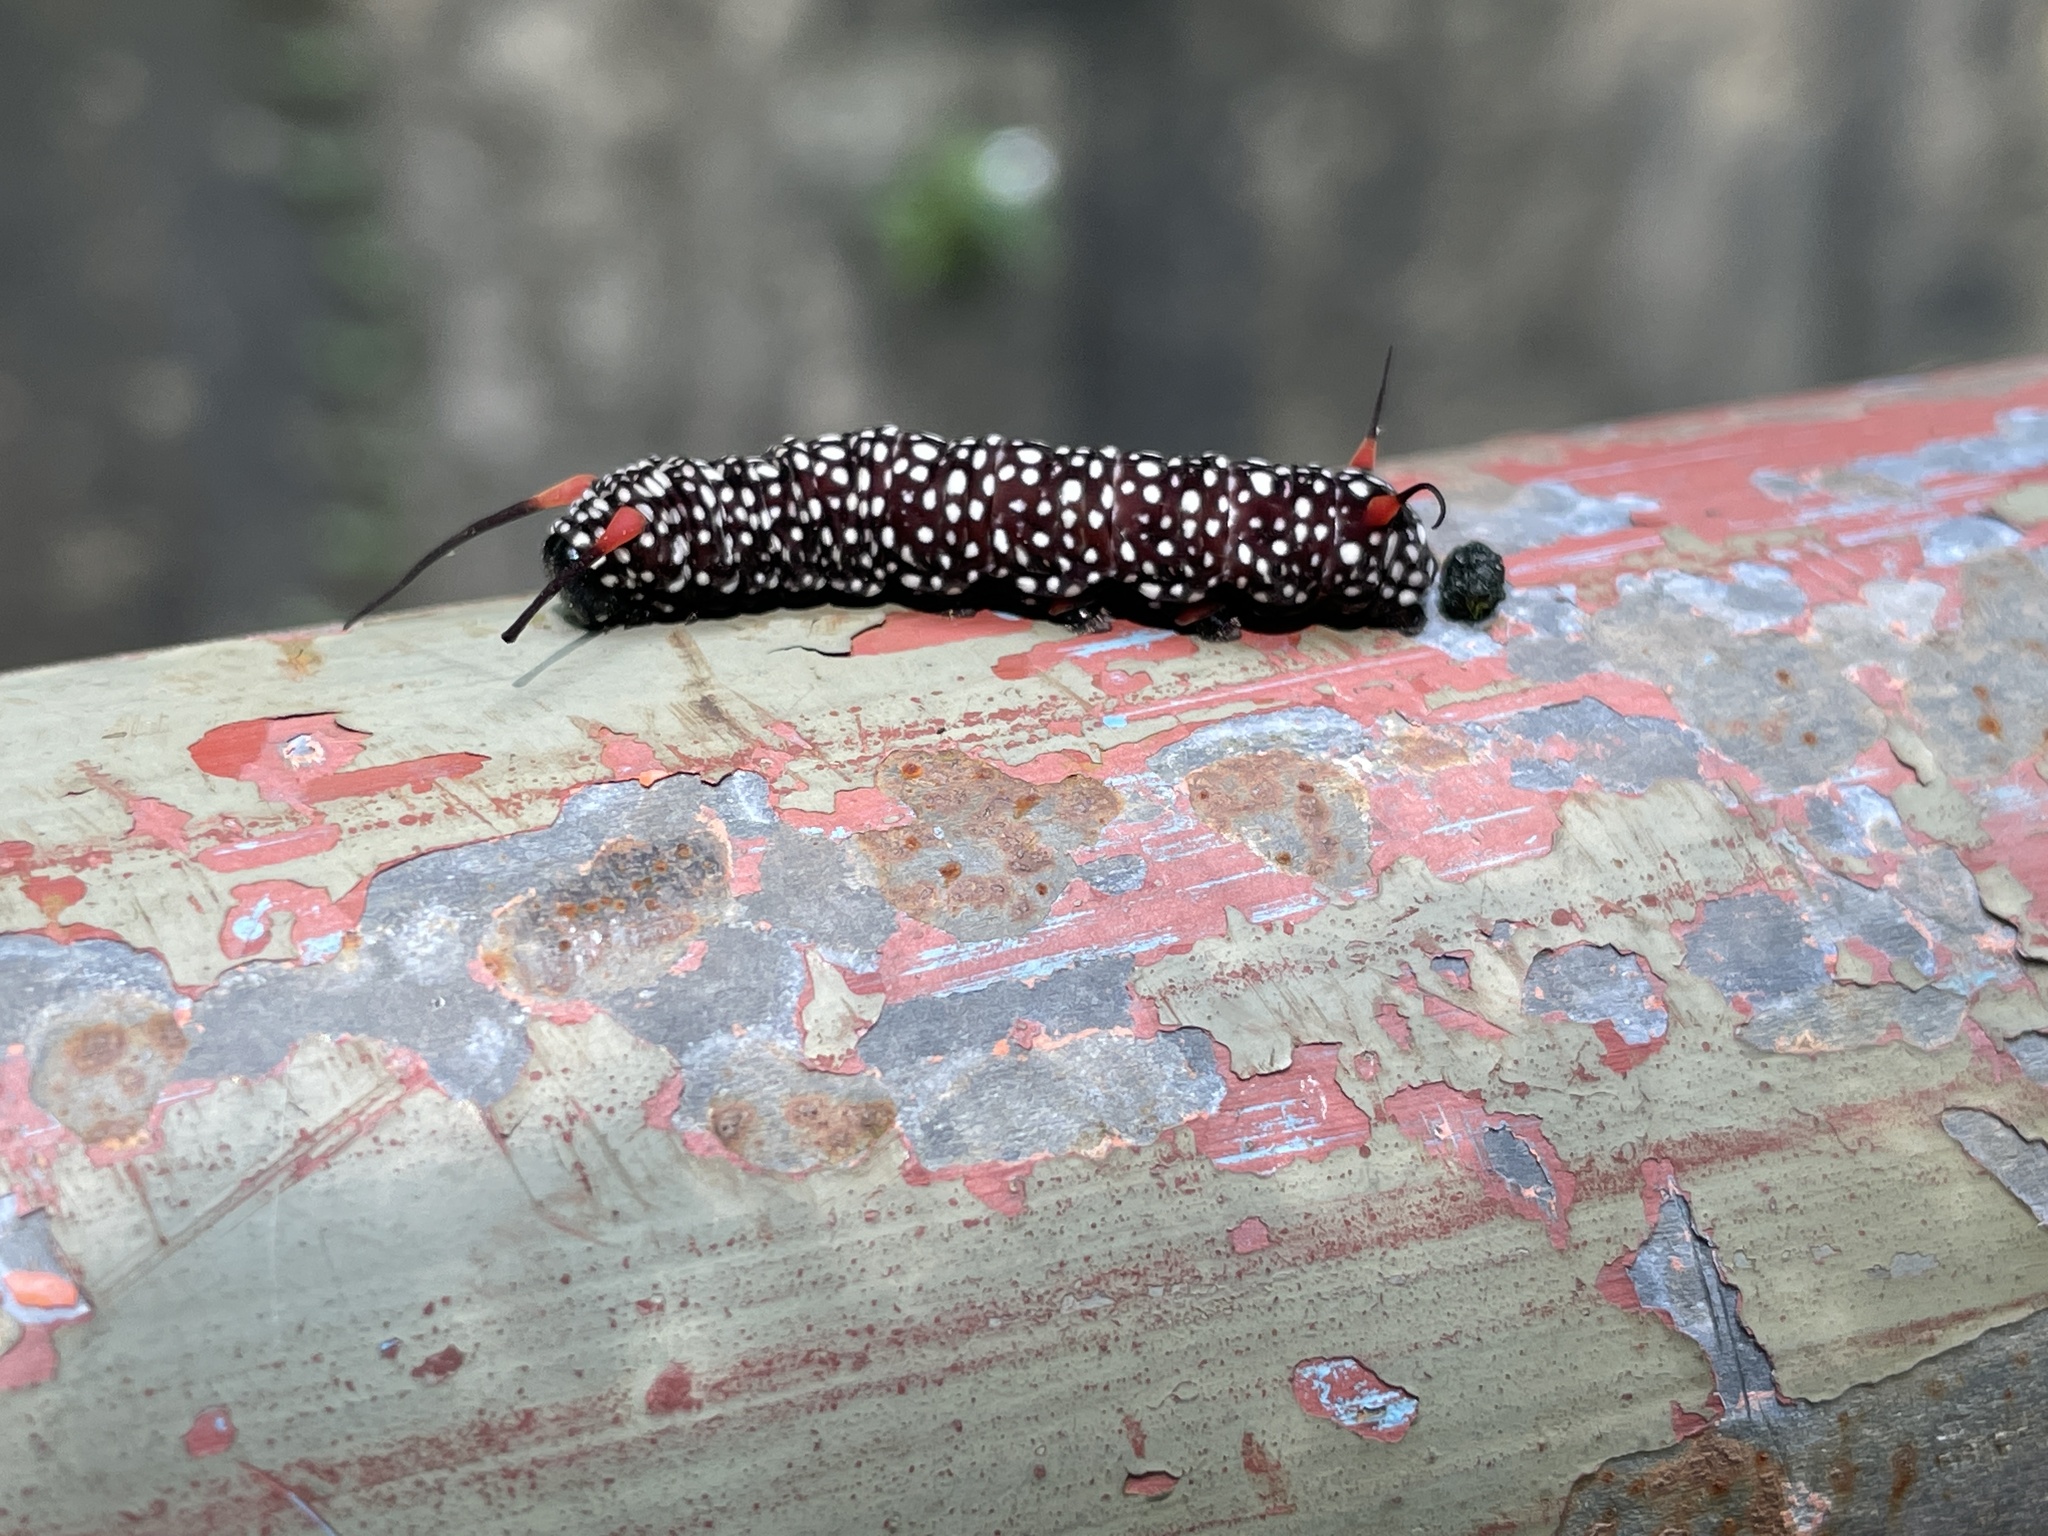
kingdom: Animalia
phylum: Arthropoda
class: Insecta
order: Lepidoptera
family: Nymphalidae
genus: Ideopsis
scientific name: Ideopsis similis
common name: Ceylon blue glassy tiger
